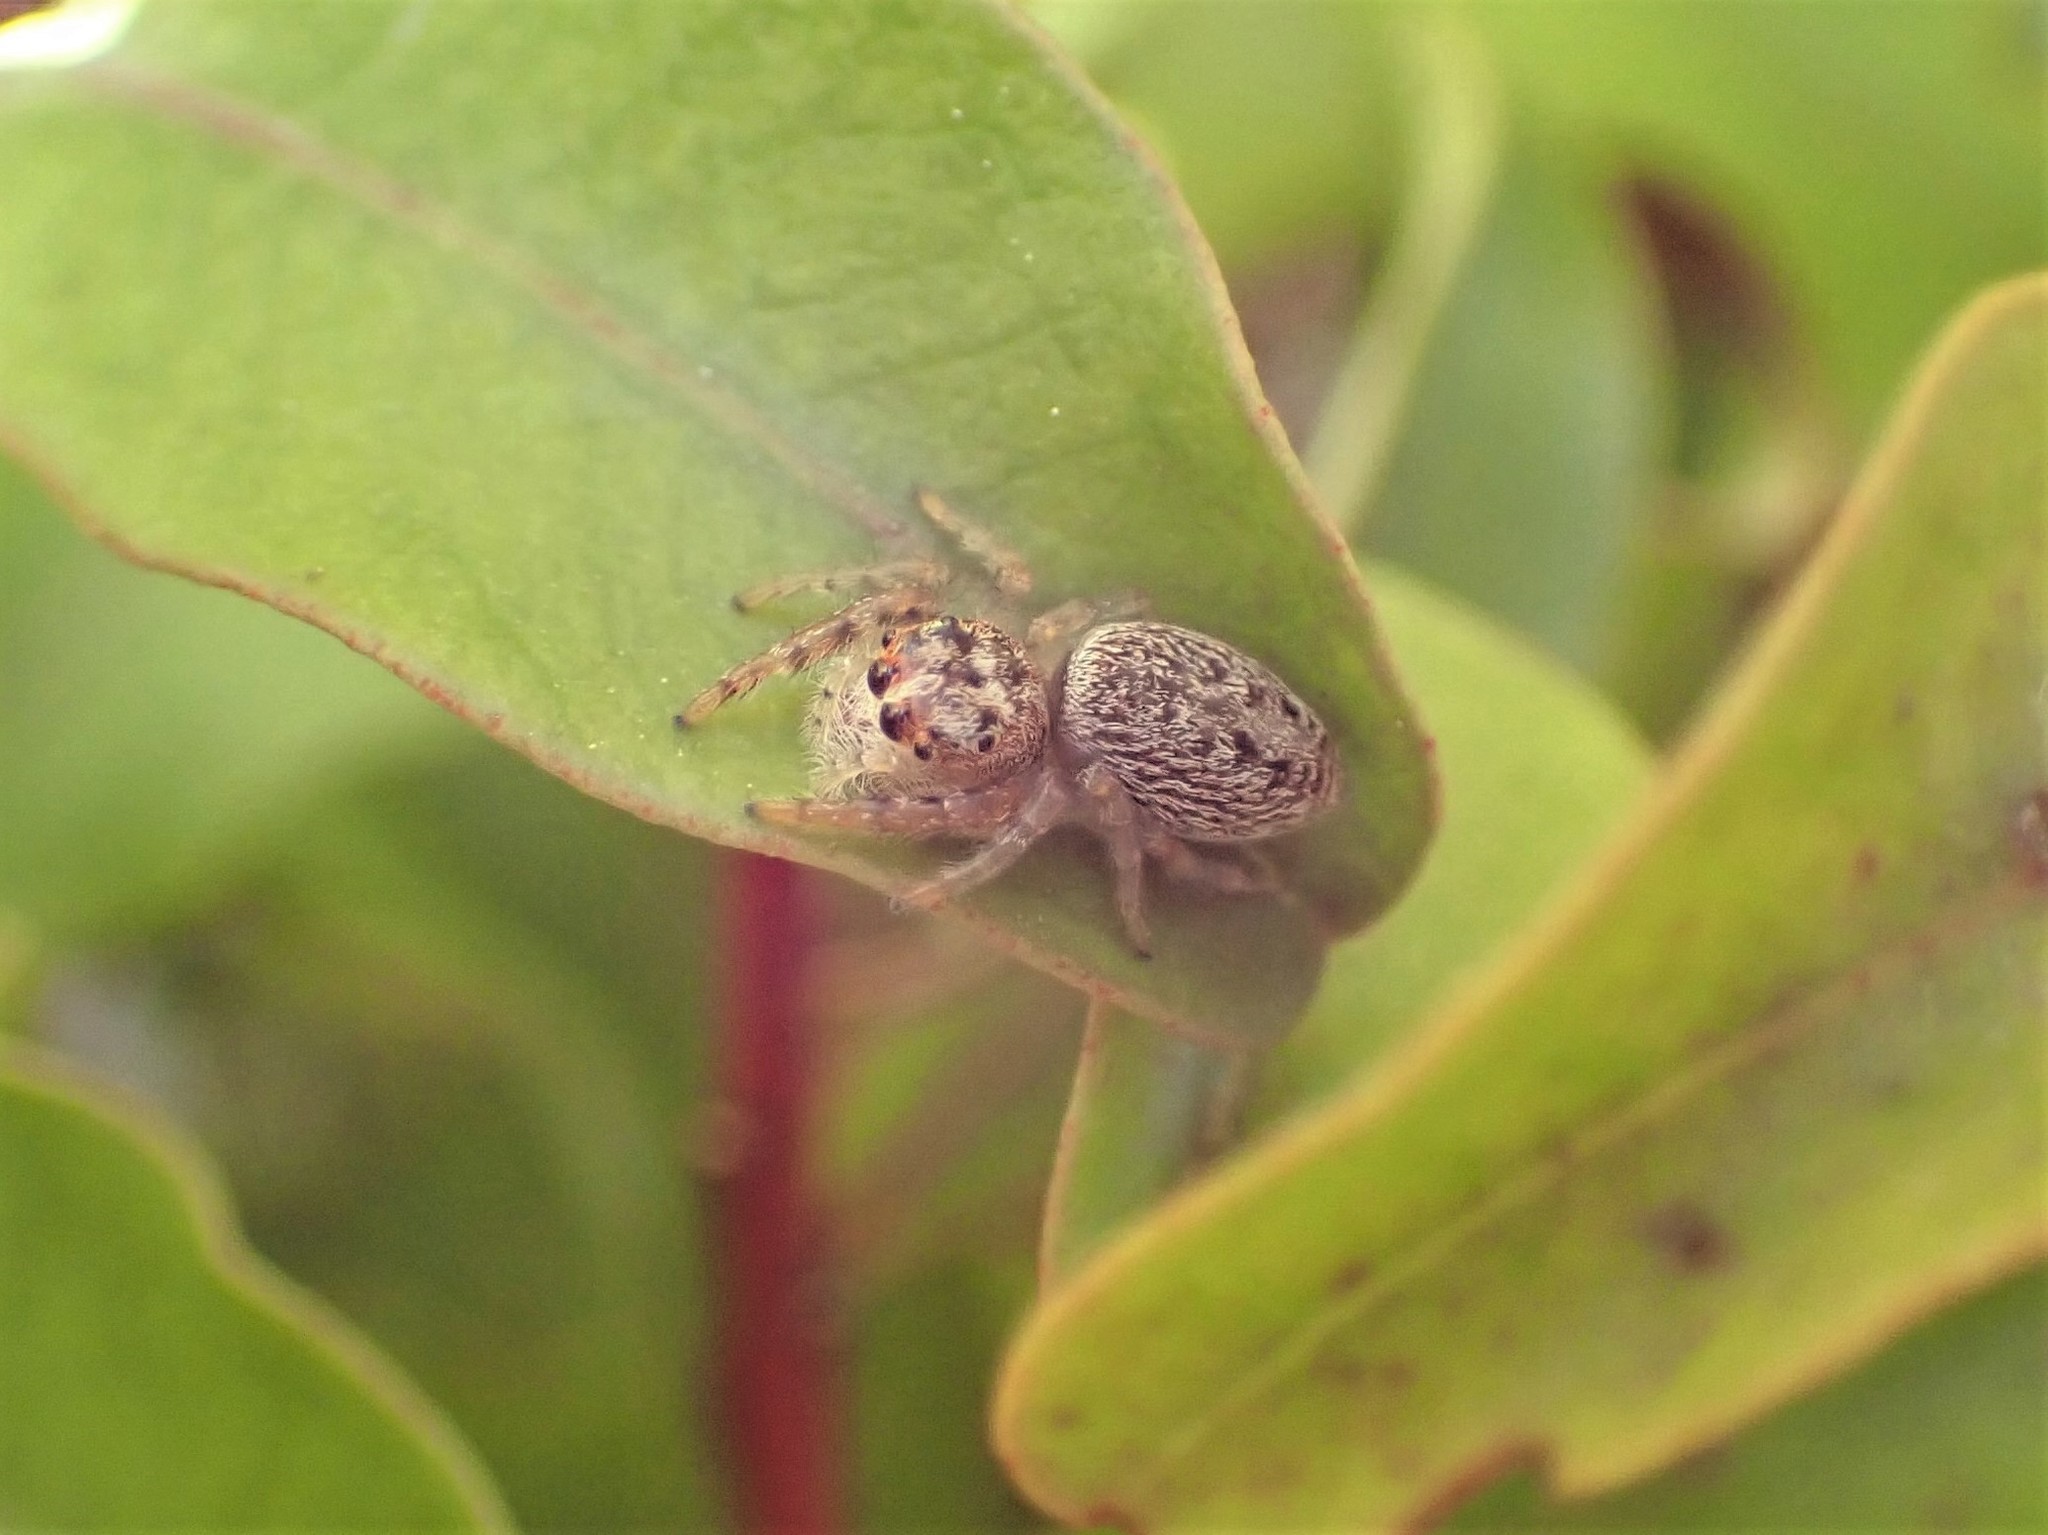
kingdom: Animalia
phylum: Arthropoda
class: Arachnida
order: Araneae
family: Salticidae
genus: Opisthoncus
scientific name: Opisthoncus polyphemus
